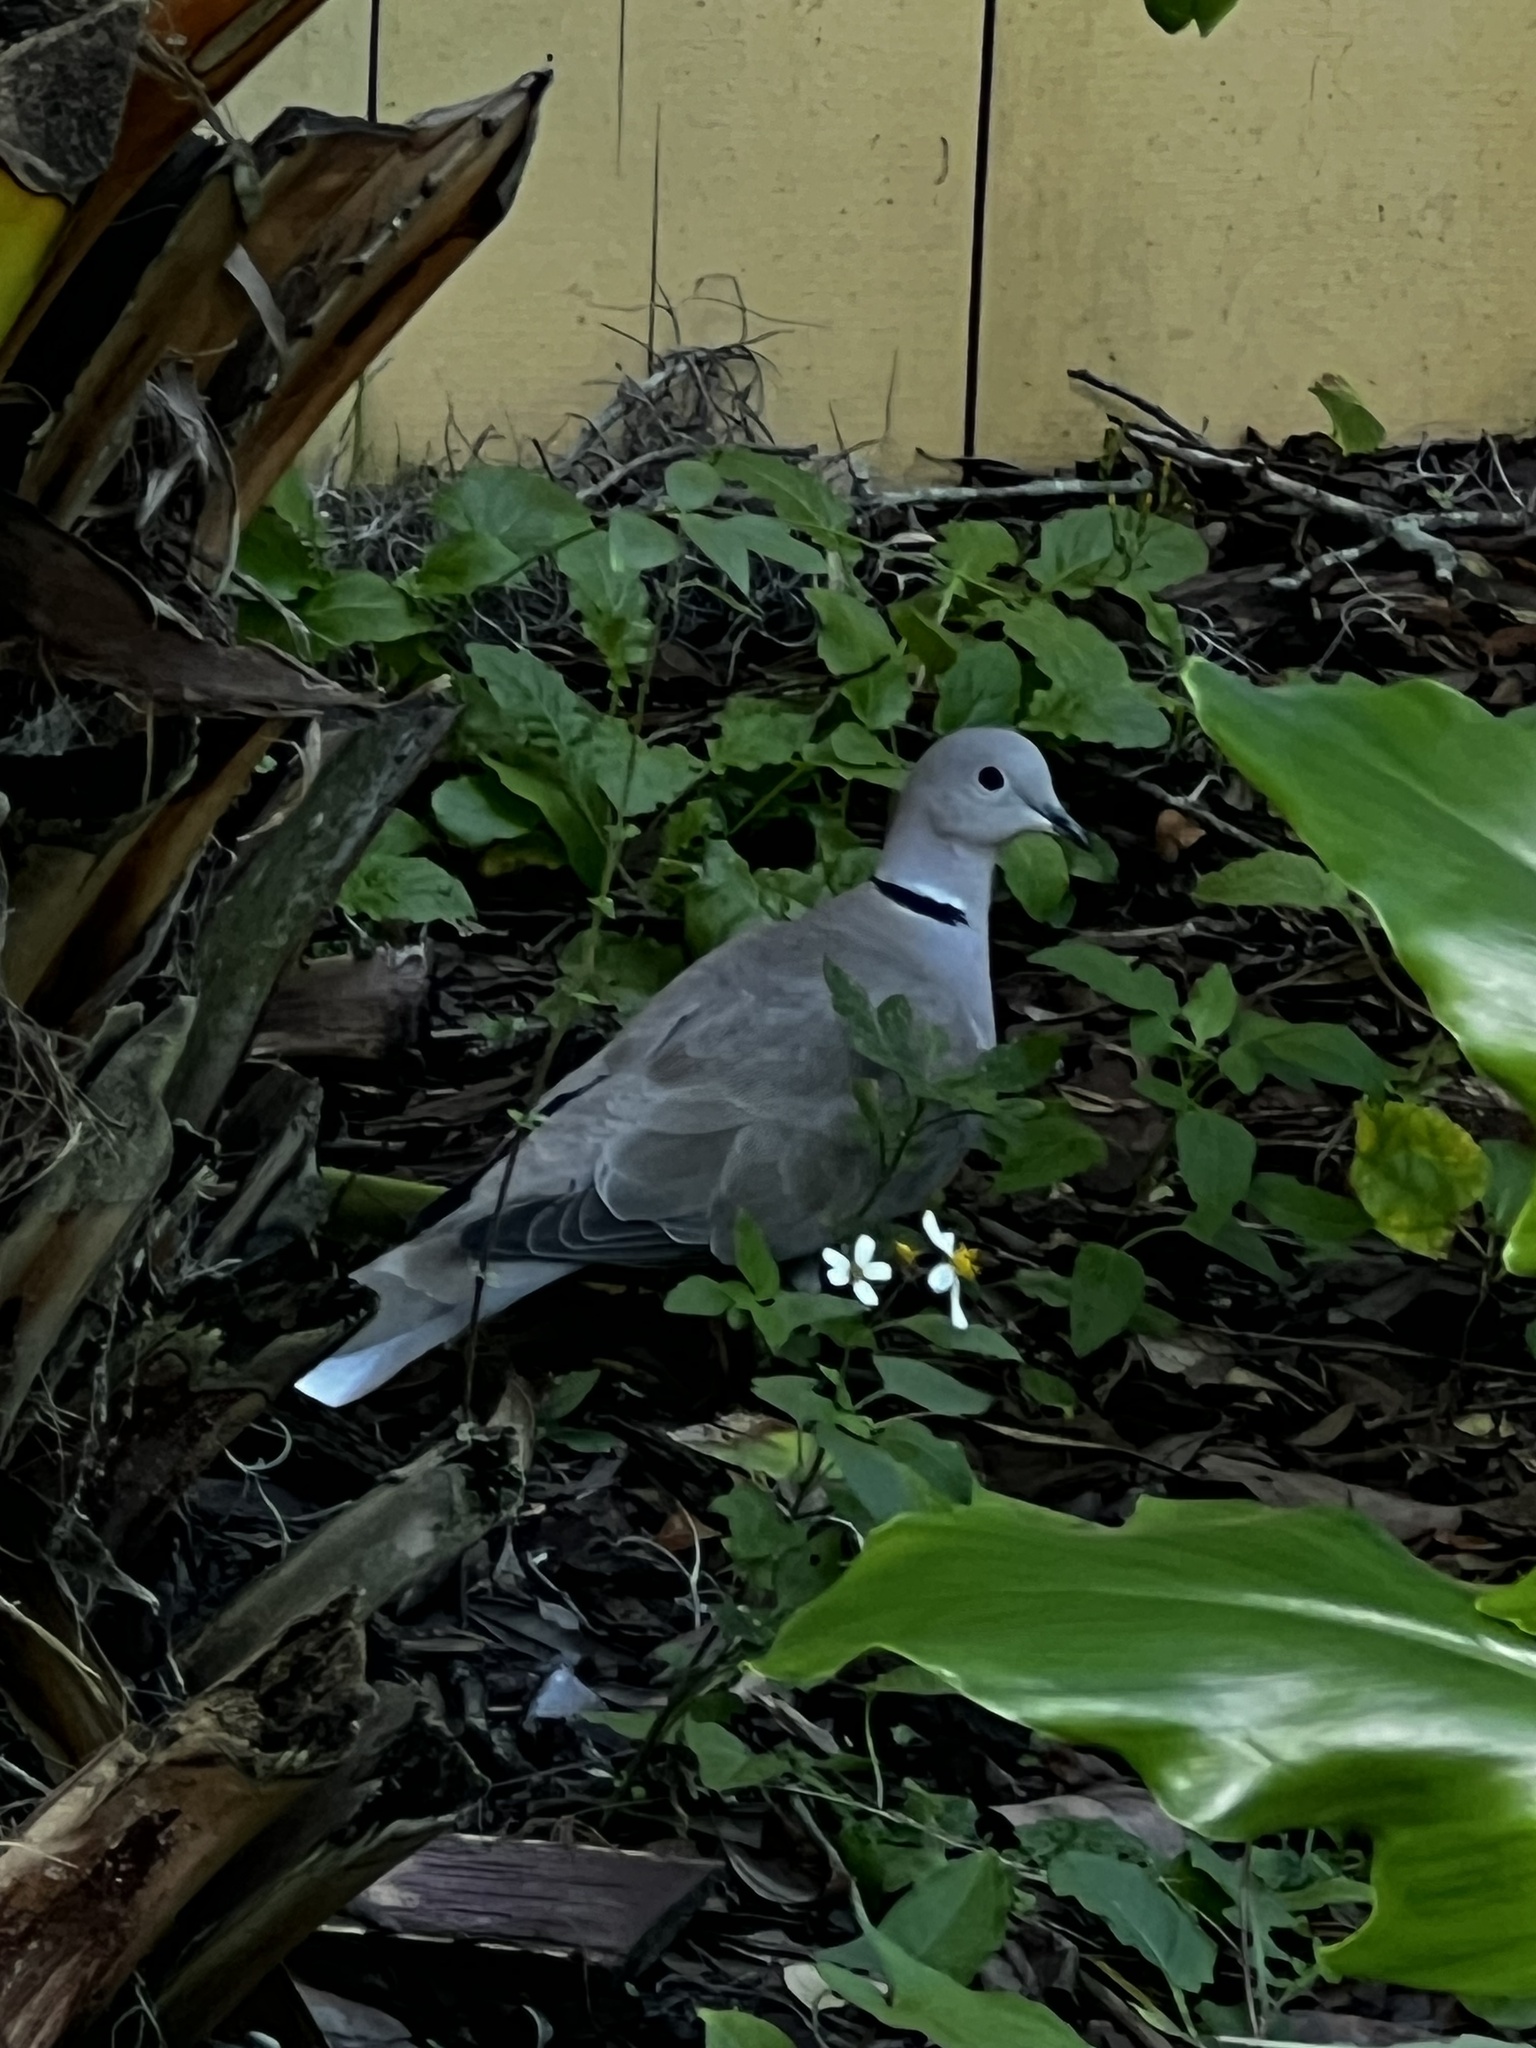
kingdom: Animalia
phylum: Chordata
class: Aves
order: Columbiformes
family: Columbidae
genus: Streptopelia
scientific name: Streptopelia decaocto
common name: Eurasian collared dove
